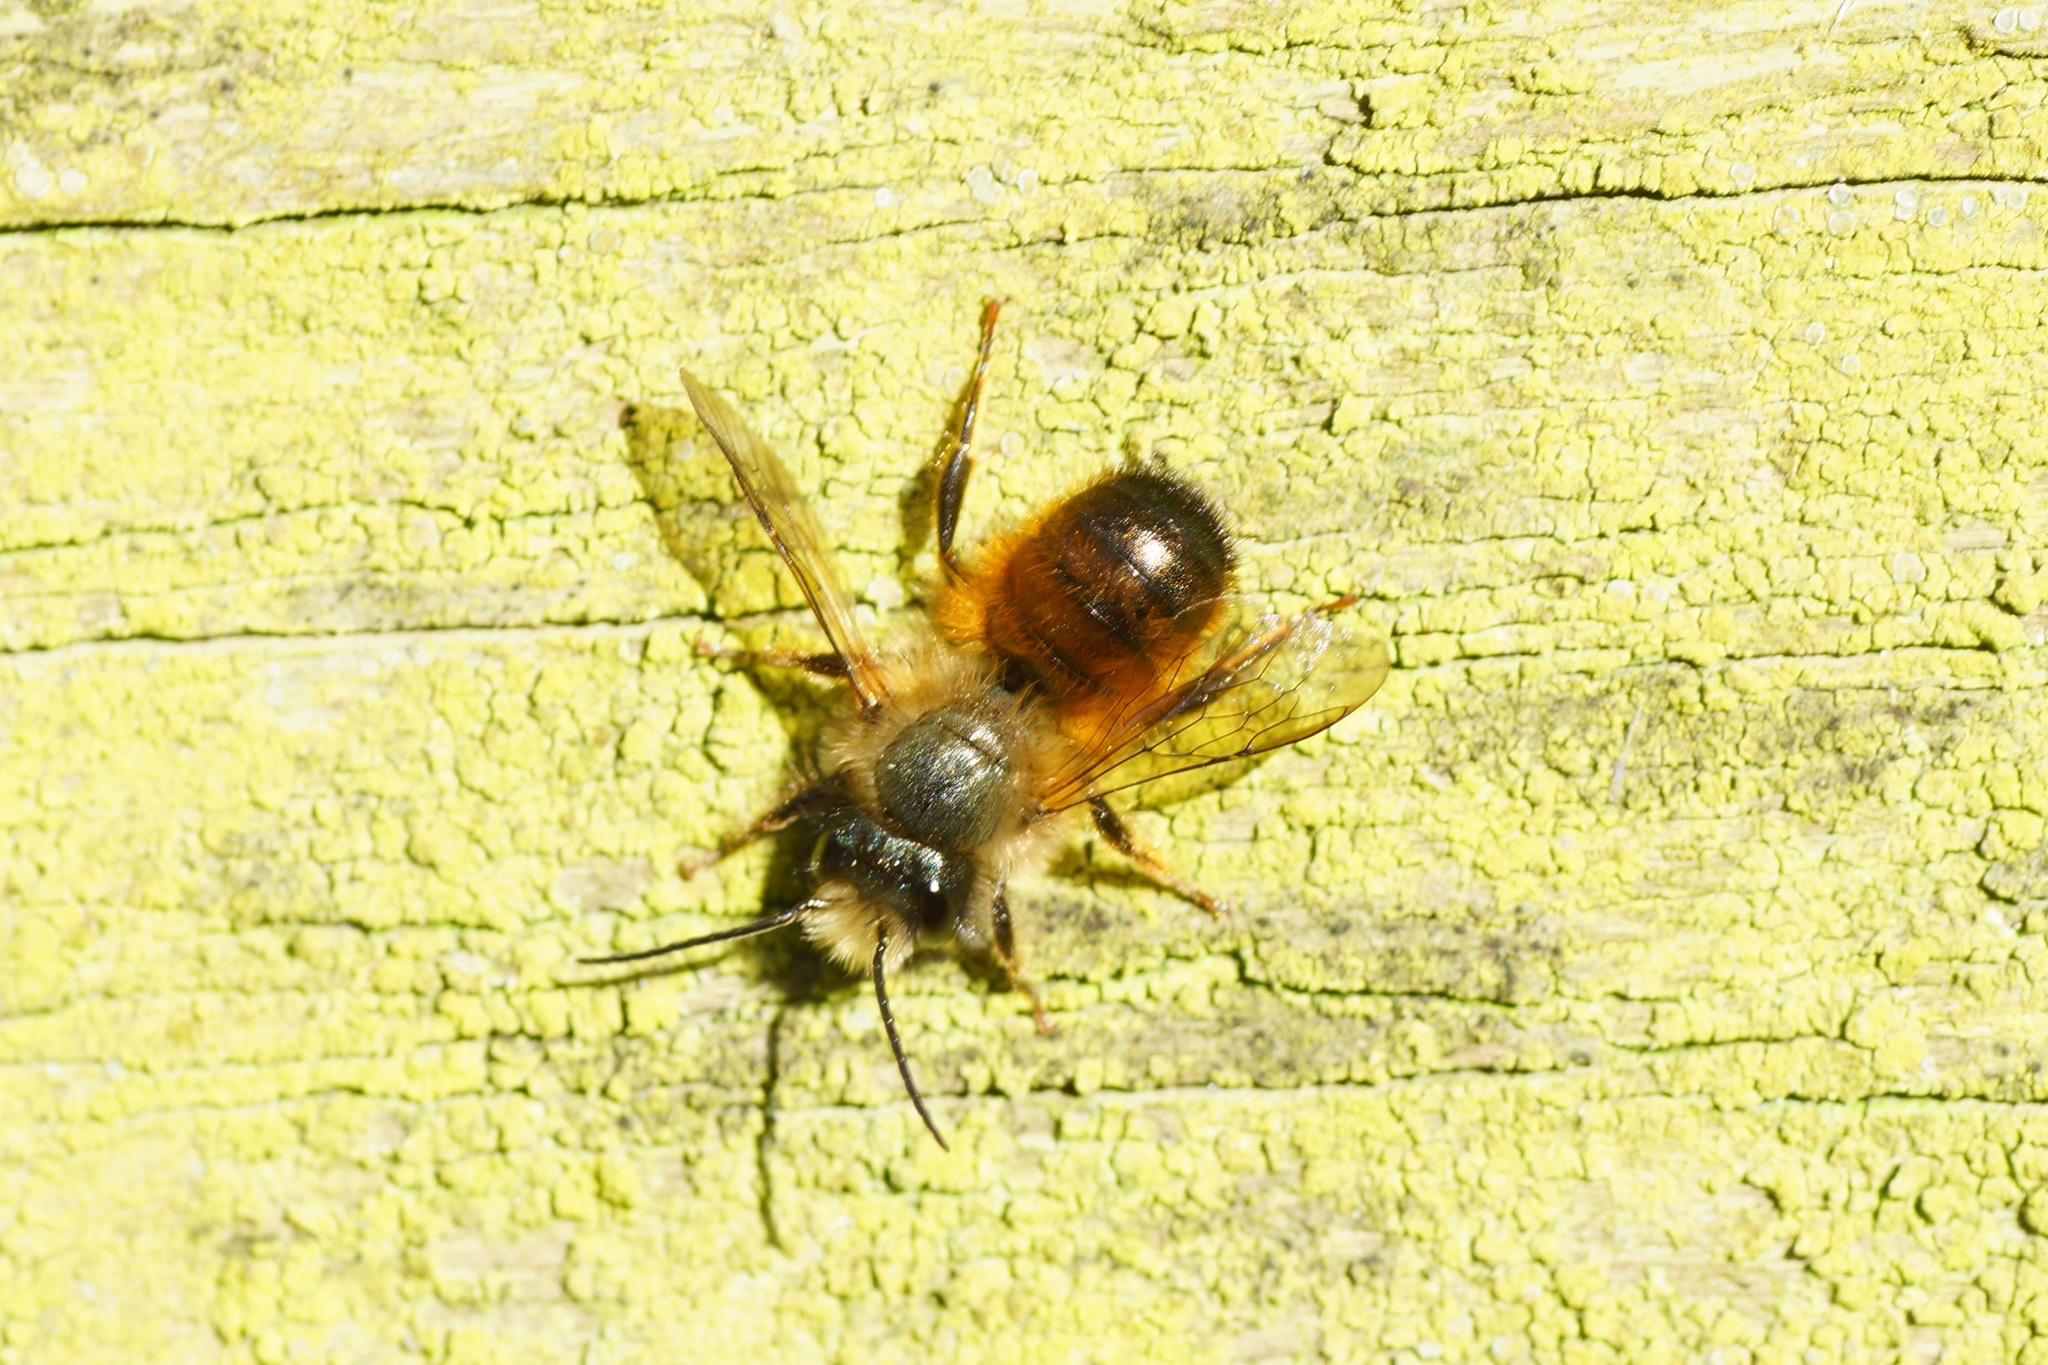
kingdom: Animalia
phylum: Arthropoda
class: Insecta
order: Hymenoptera
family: Megachilidae
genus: Osmia
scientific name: Osmia bicornis
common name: Red mason bee
